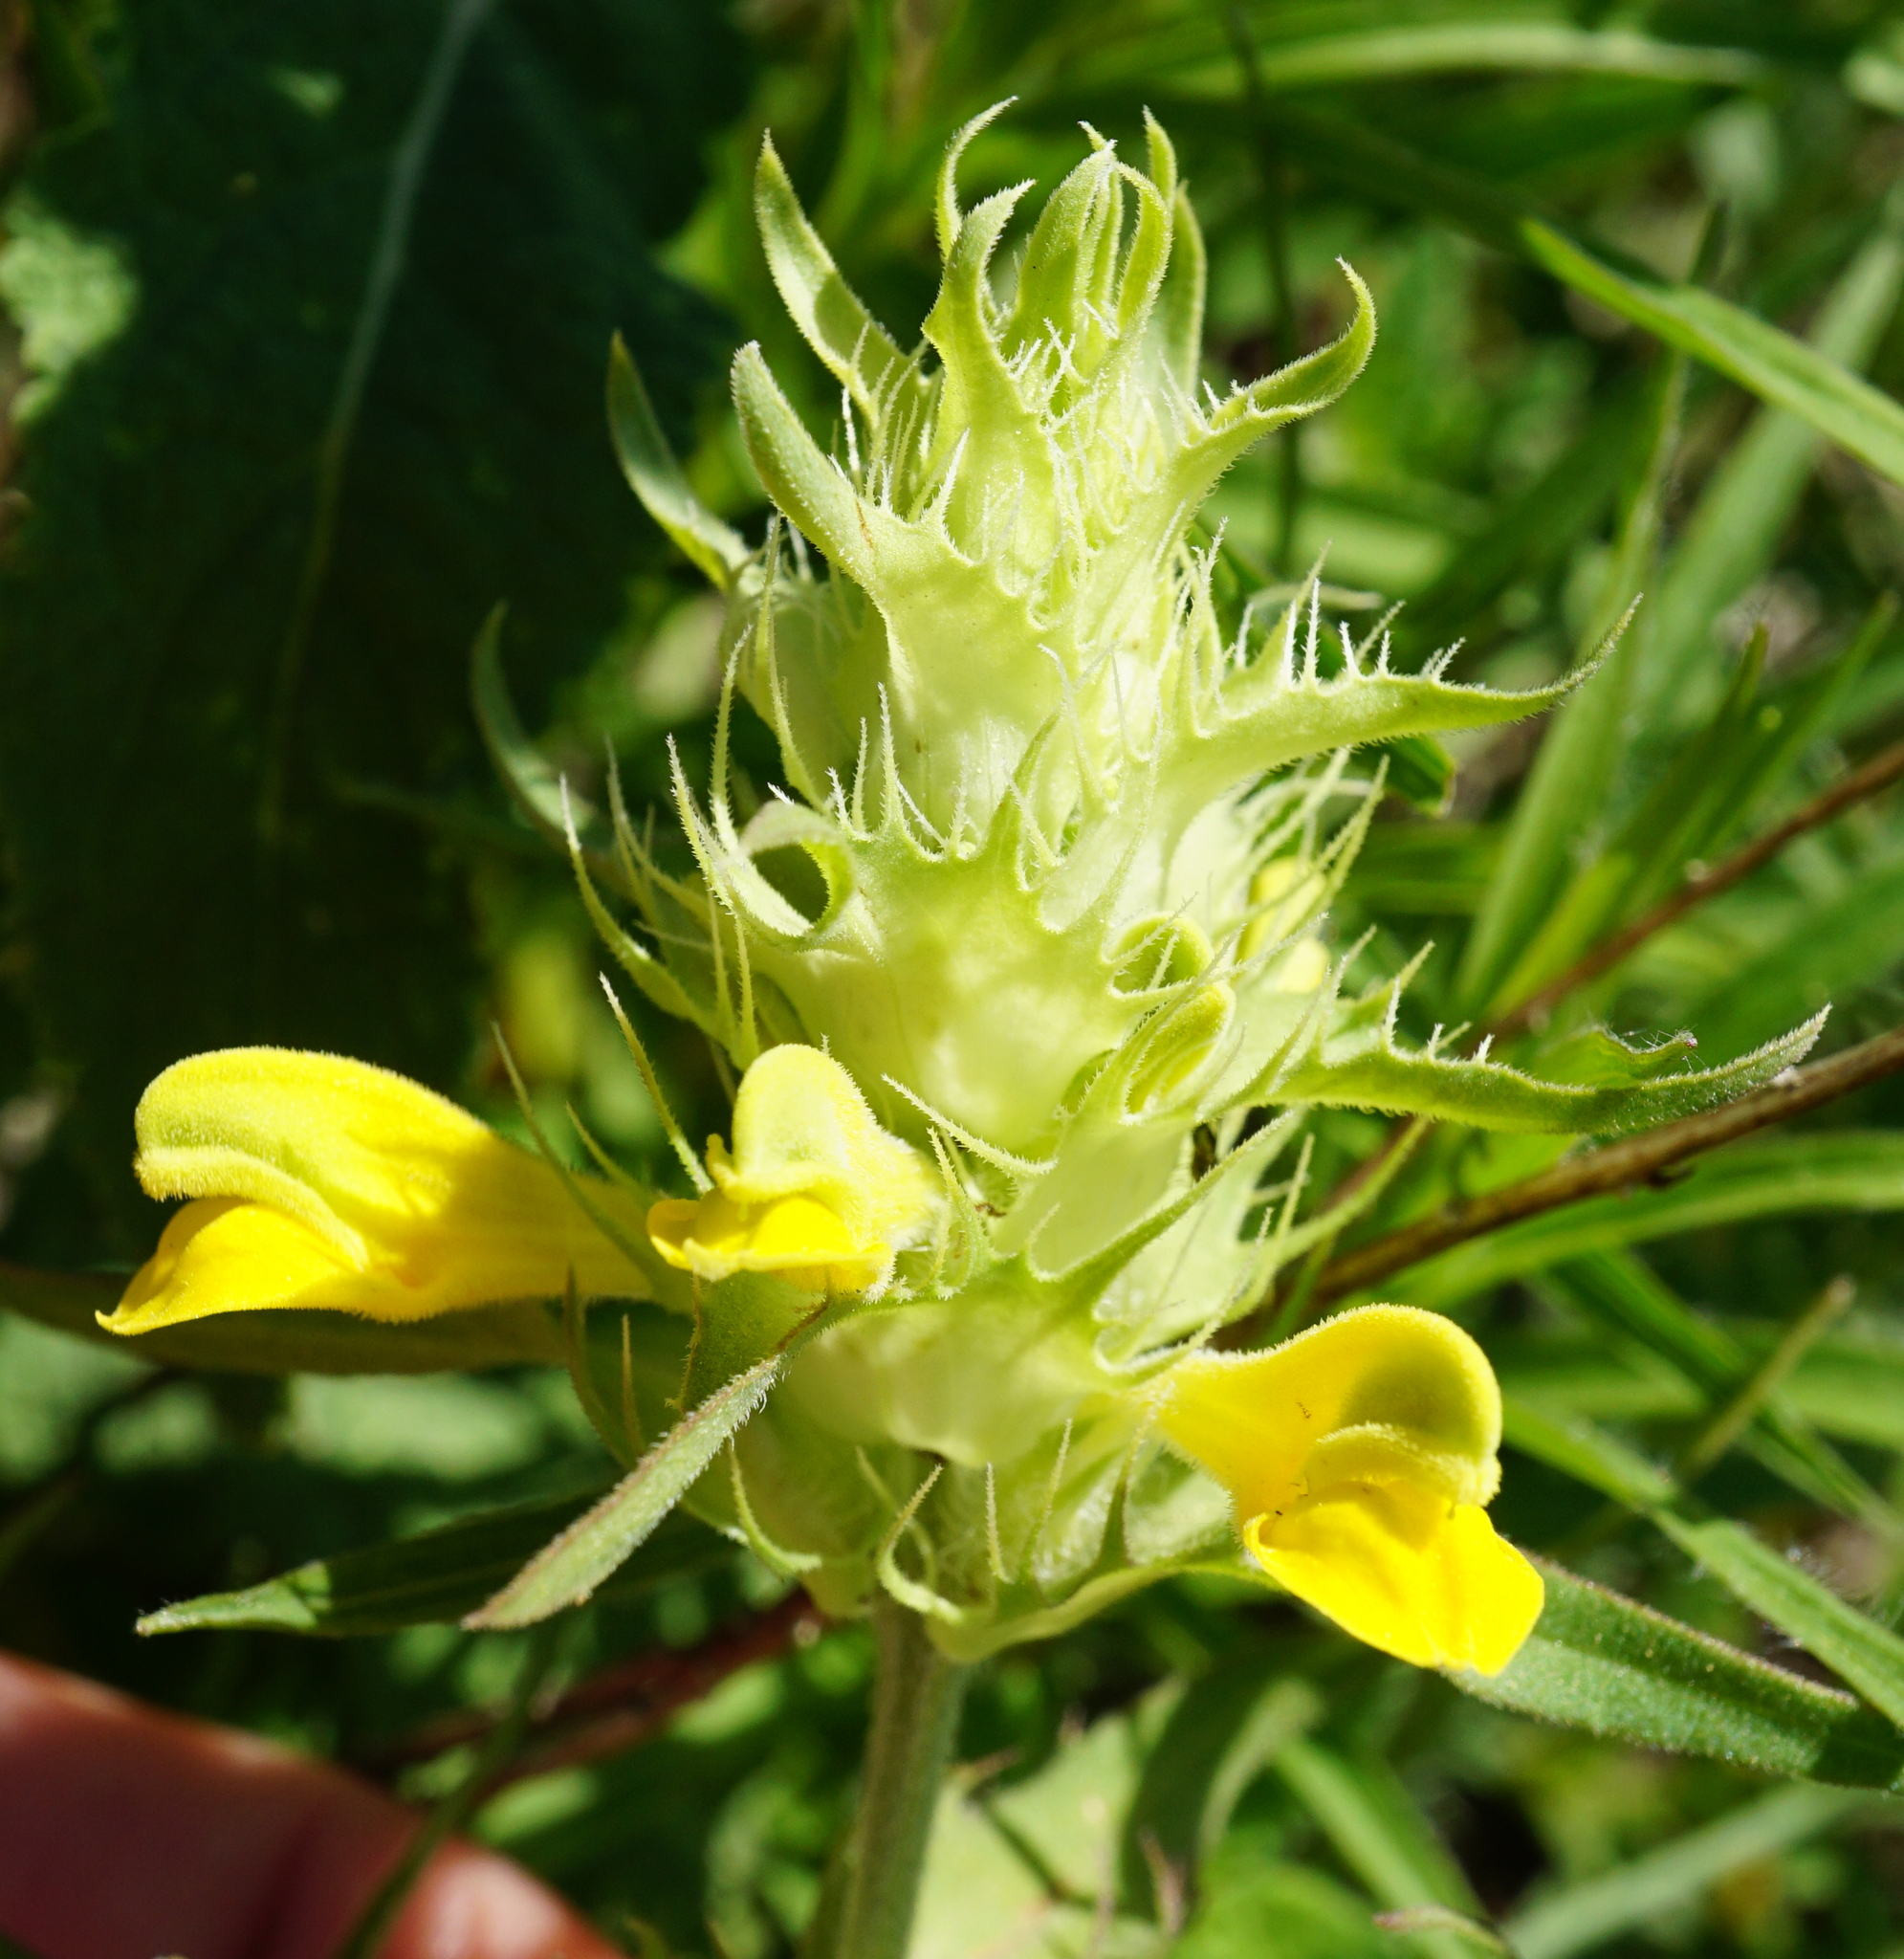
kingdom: Plantae
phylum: Tracheophyta
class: Magnoliopsida
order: Lamiales
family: Orobanchaceae
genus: Melampyrum
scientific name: Melampyrum barbatum
